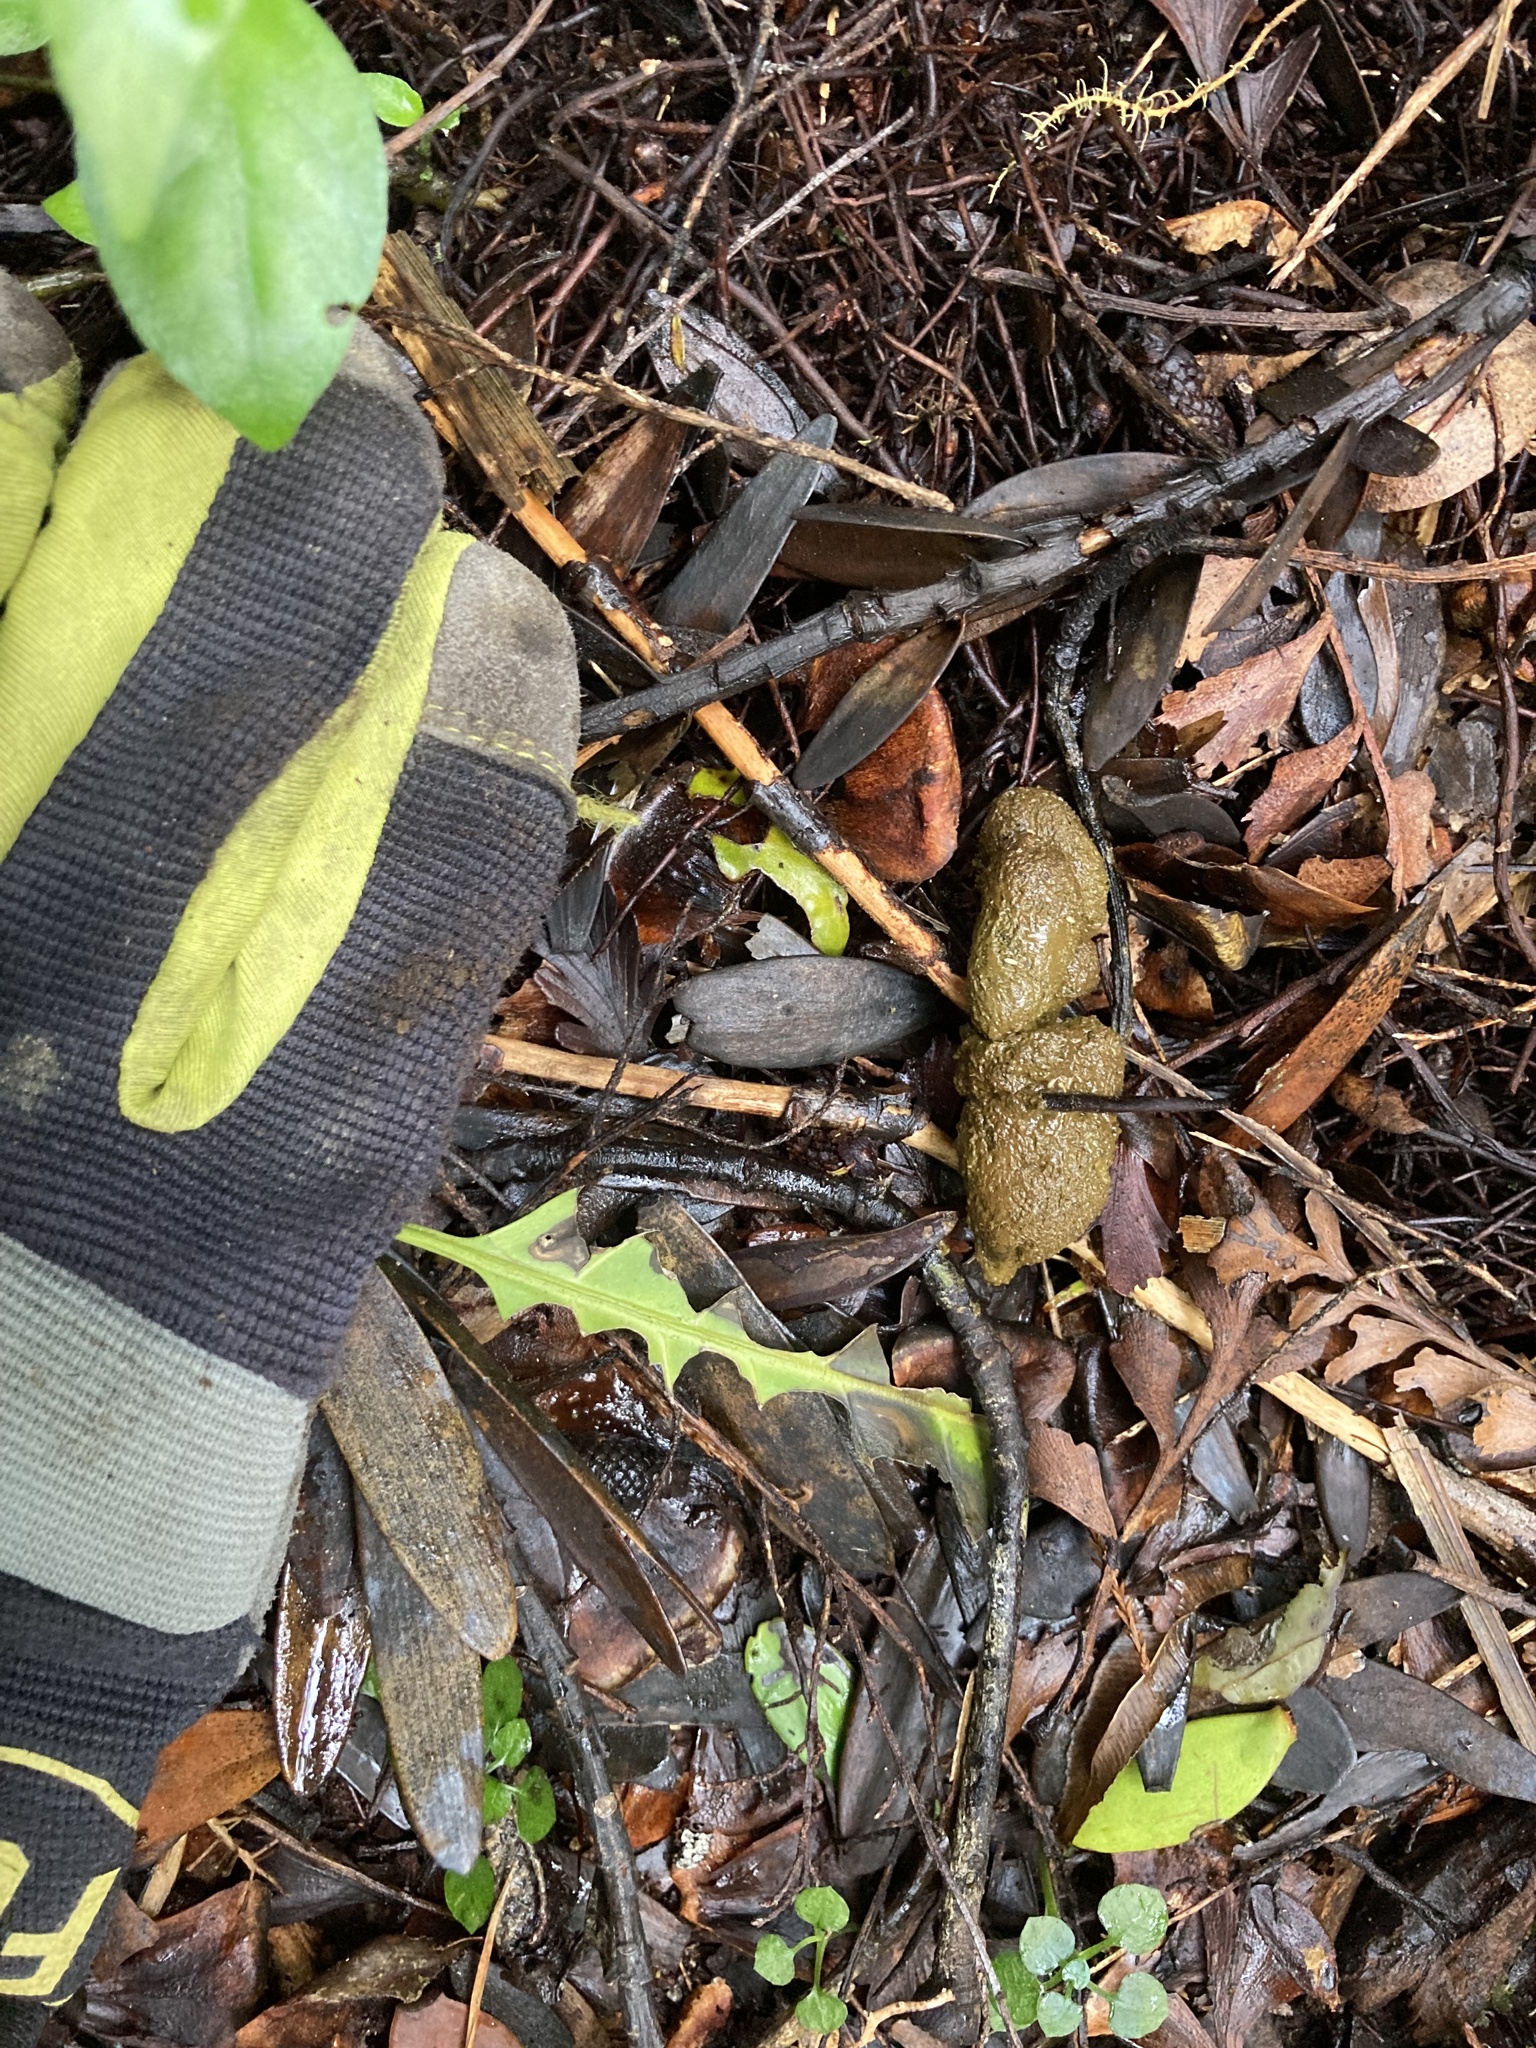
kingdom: Animalia
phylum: Chordata
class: Mammalia
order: Diprotodontia
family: Phalangeridae
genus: Trichosurus
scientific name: Trichosurus vulpecula
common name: Common brushtail
